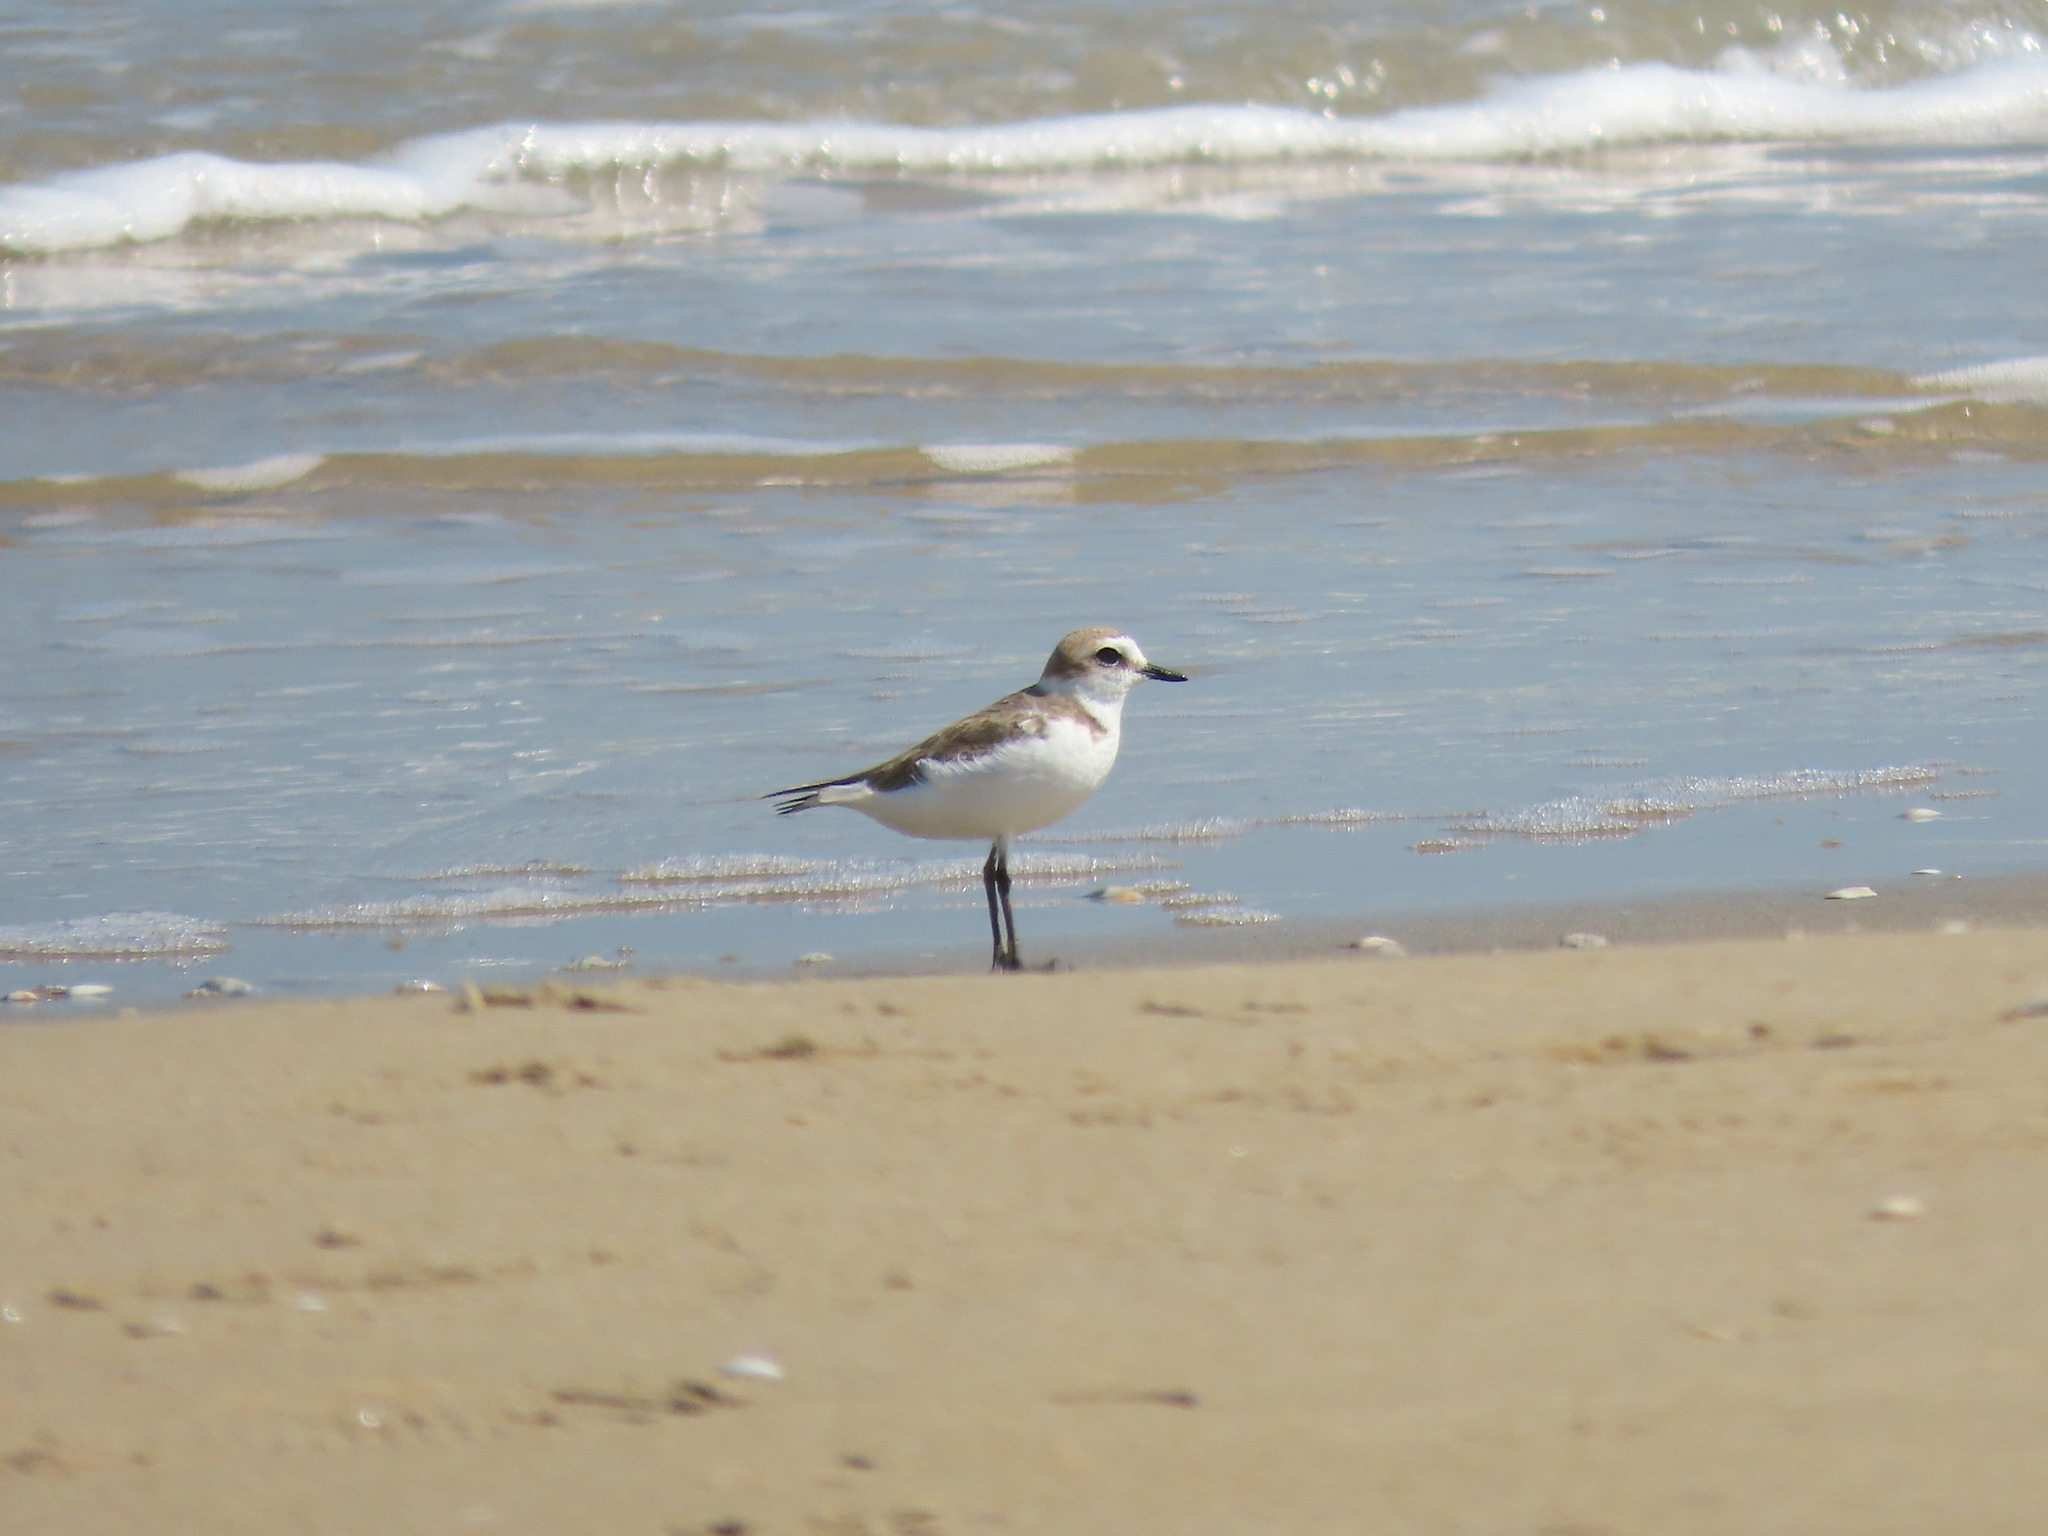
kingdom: Animalia
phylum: Chordata
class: Aves
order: Charadriiformes
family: Charadriidae
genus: Charadrius
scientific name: Charadrius alexandrinus
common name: Kentish plover
